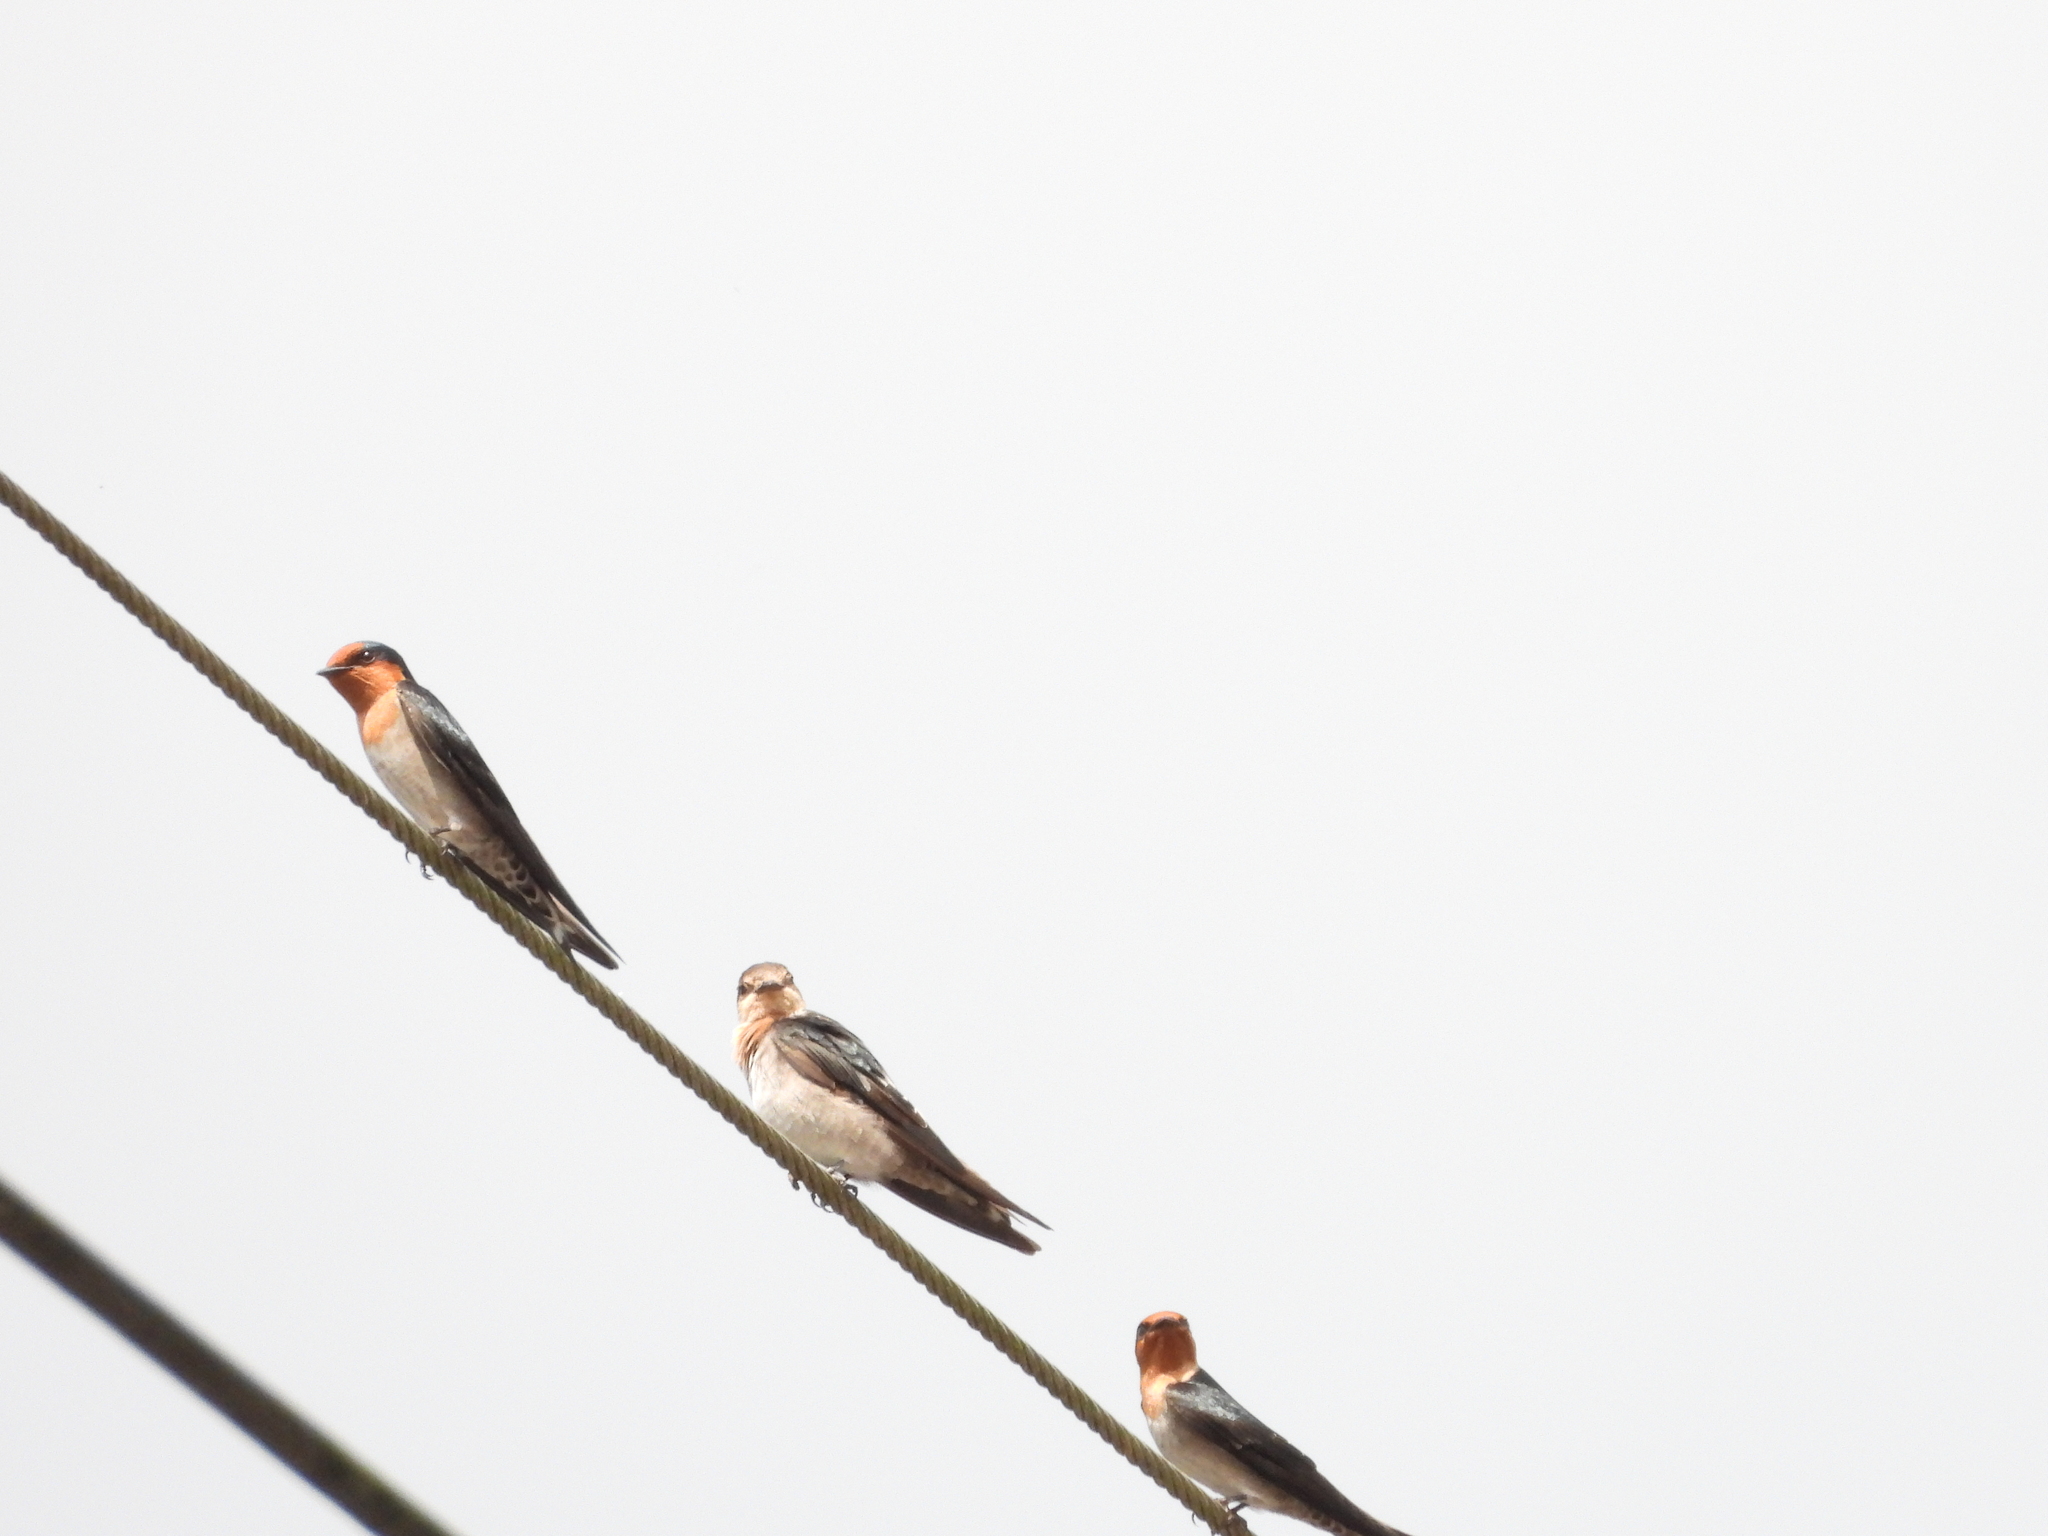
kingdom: Animalia
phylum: Chordata
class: Aves
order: Passeriformes
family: Hirundinidae
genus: Hirundo
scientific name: Hirundo tahitica
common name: Pacific swallow
